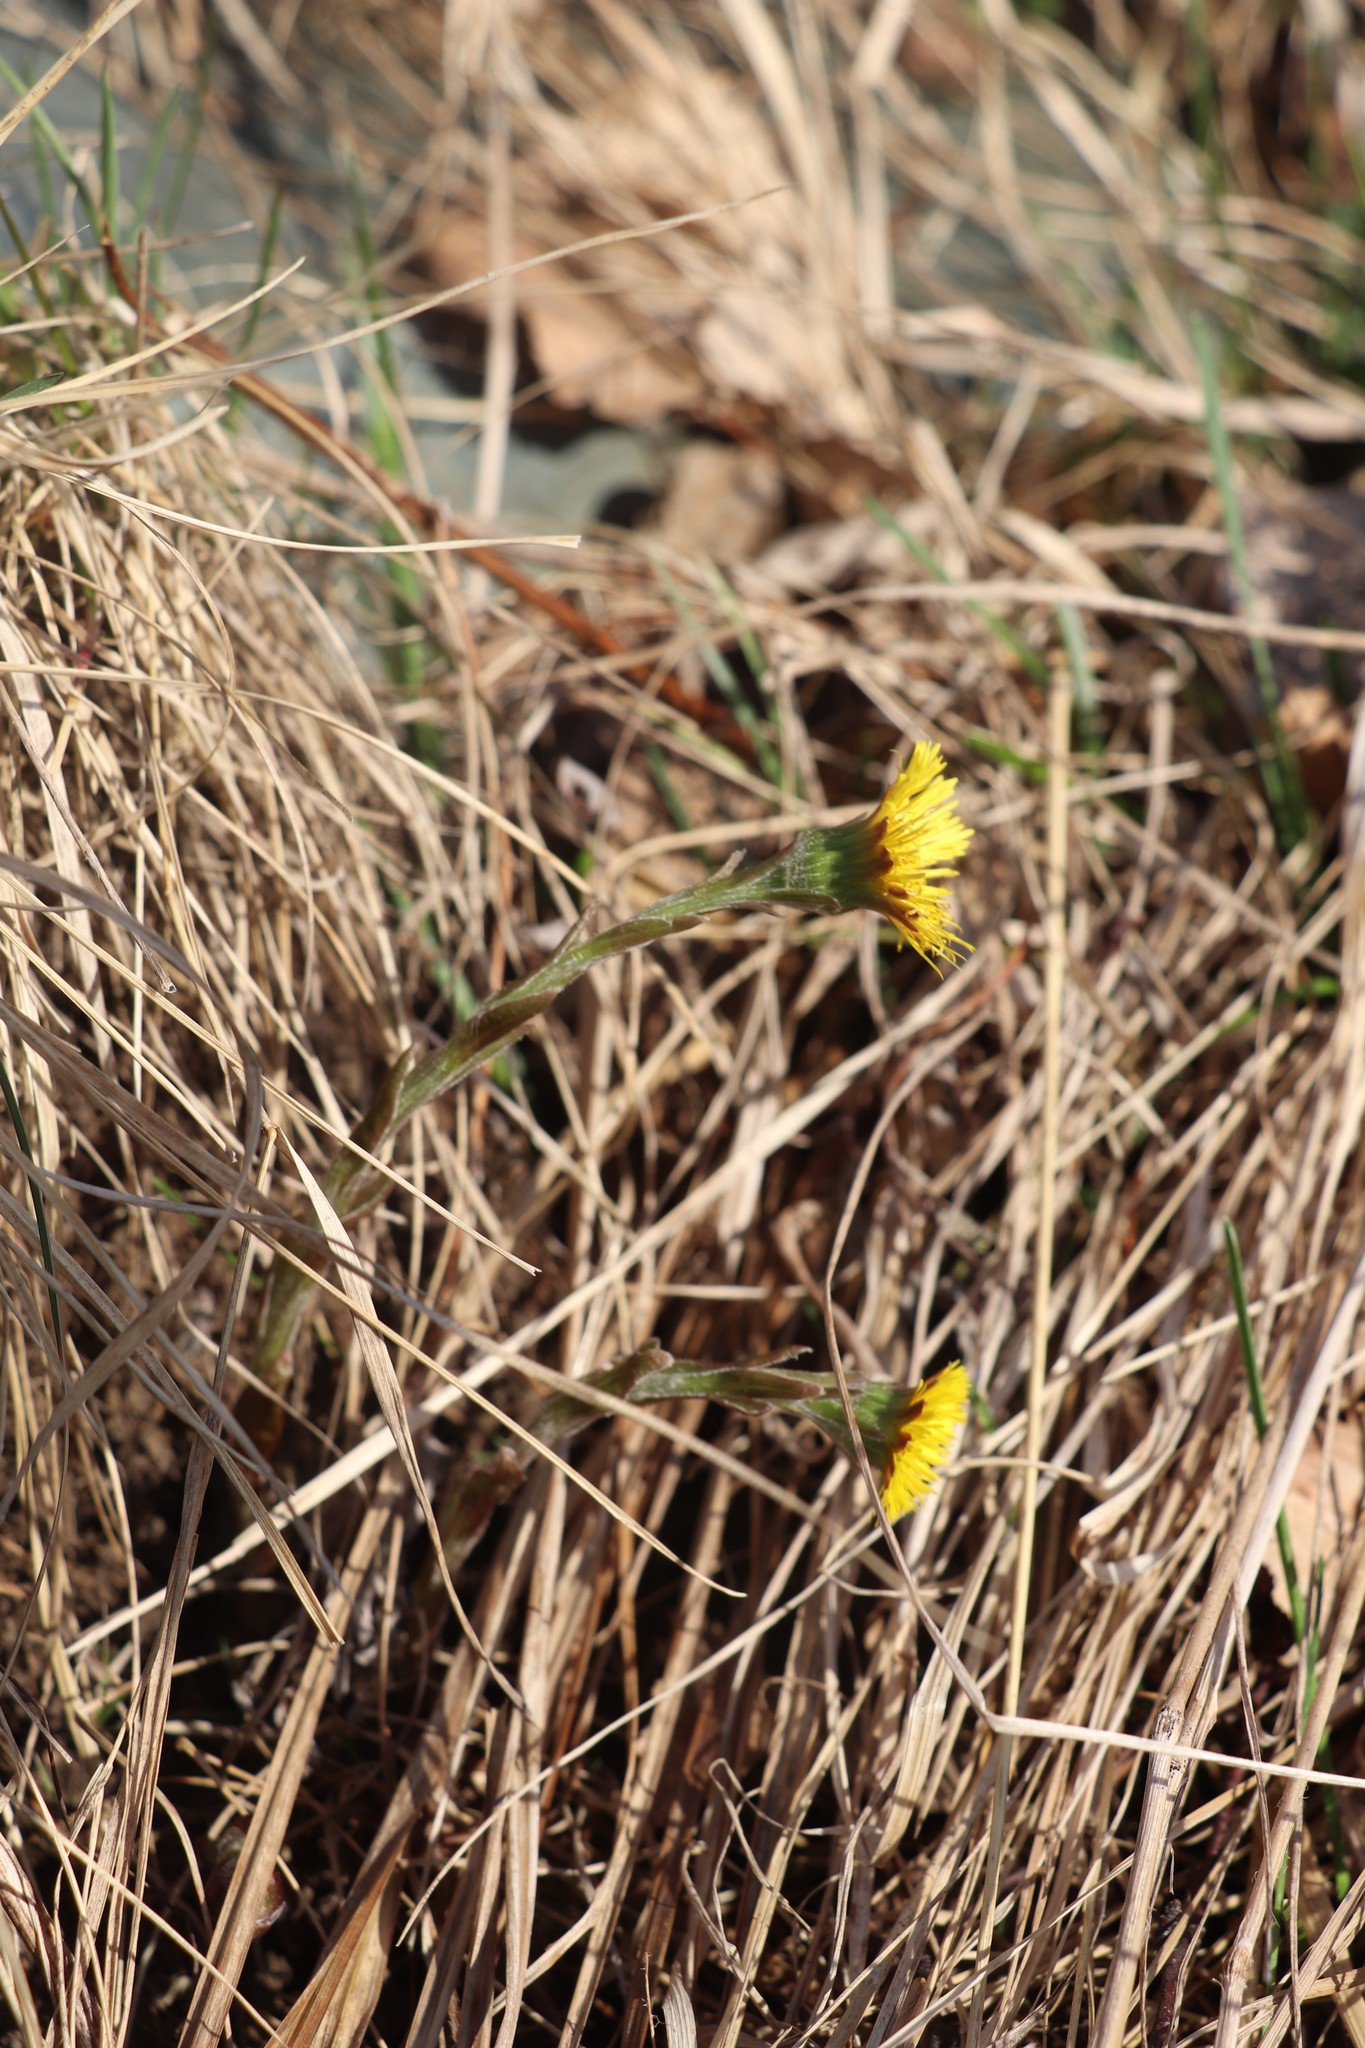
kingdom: Plantae
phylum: Tracheophyta
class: Magnoliopsida
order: Asterales
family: Asteraceae
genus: Tussilago
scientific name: Tussilago farfara
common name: Coltsfoot
